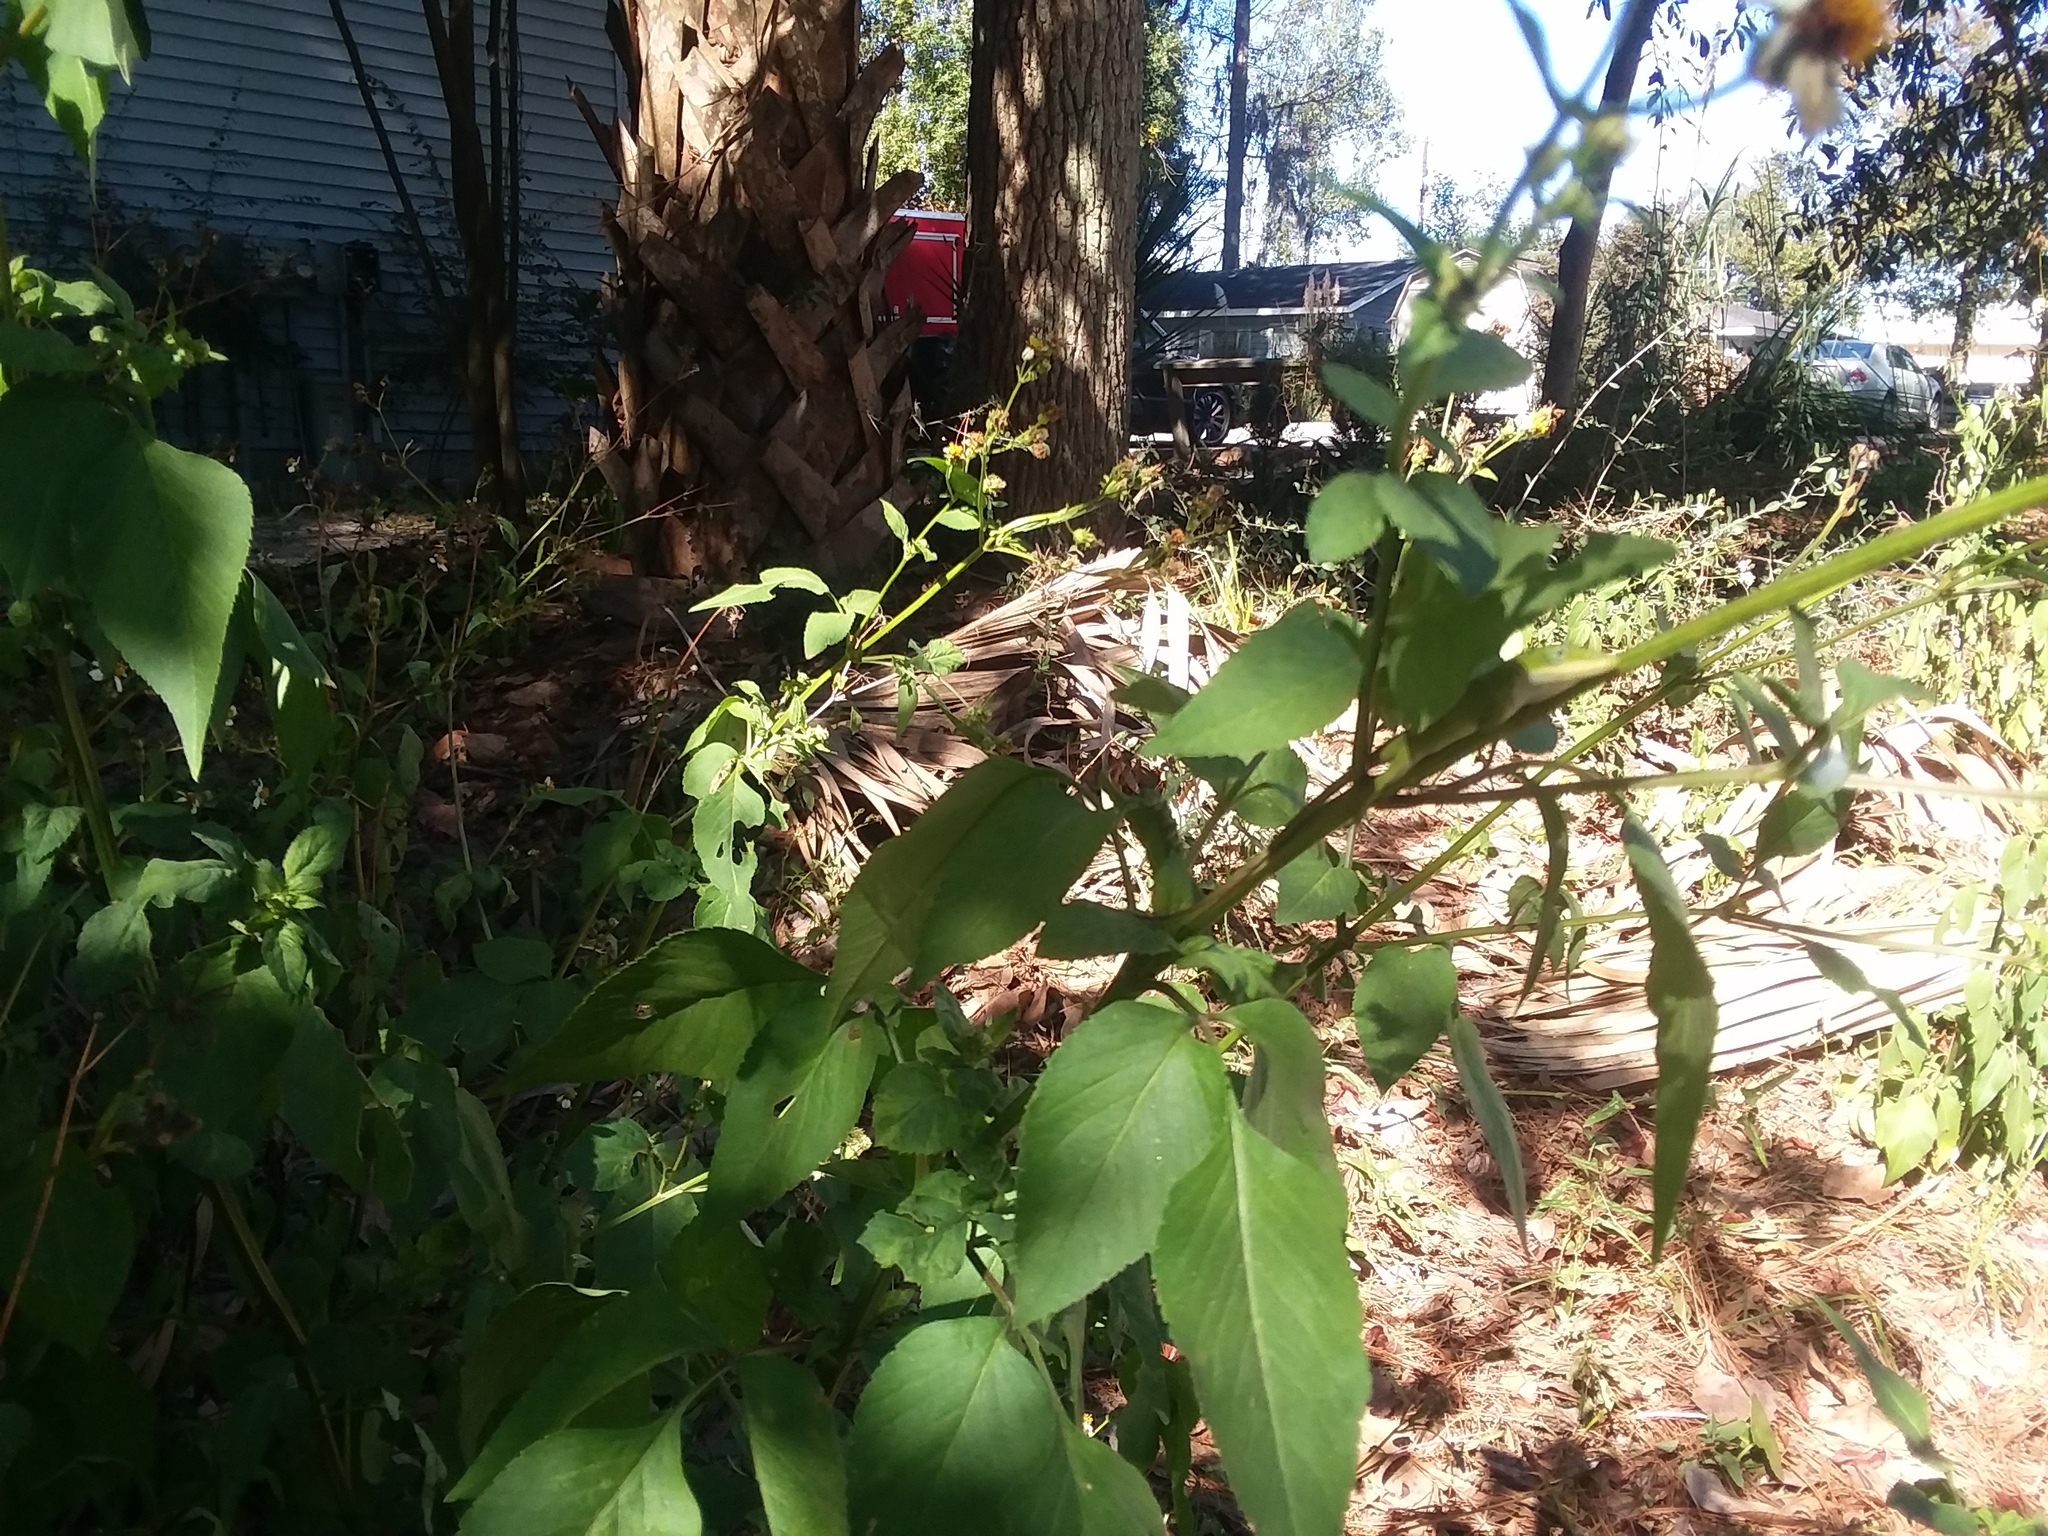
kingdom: Animalia
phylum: Chordata
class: Squamata
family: Dactyloidae
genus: Anolis
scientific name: Anolis carolinensis
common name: Green anole
